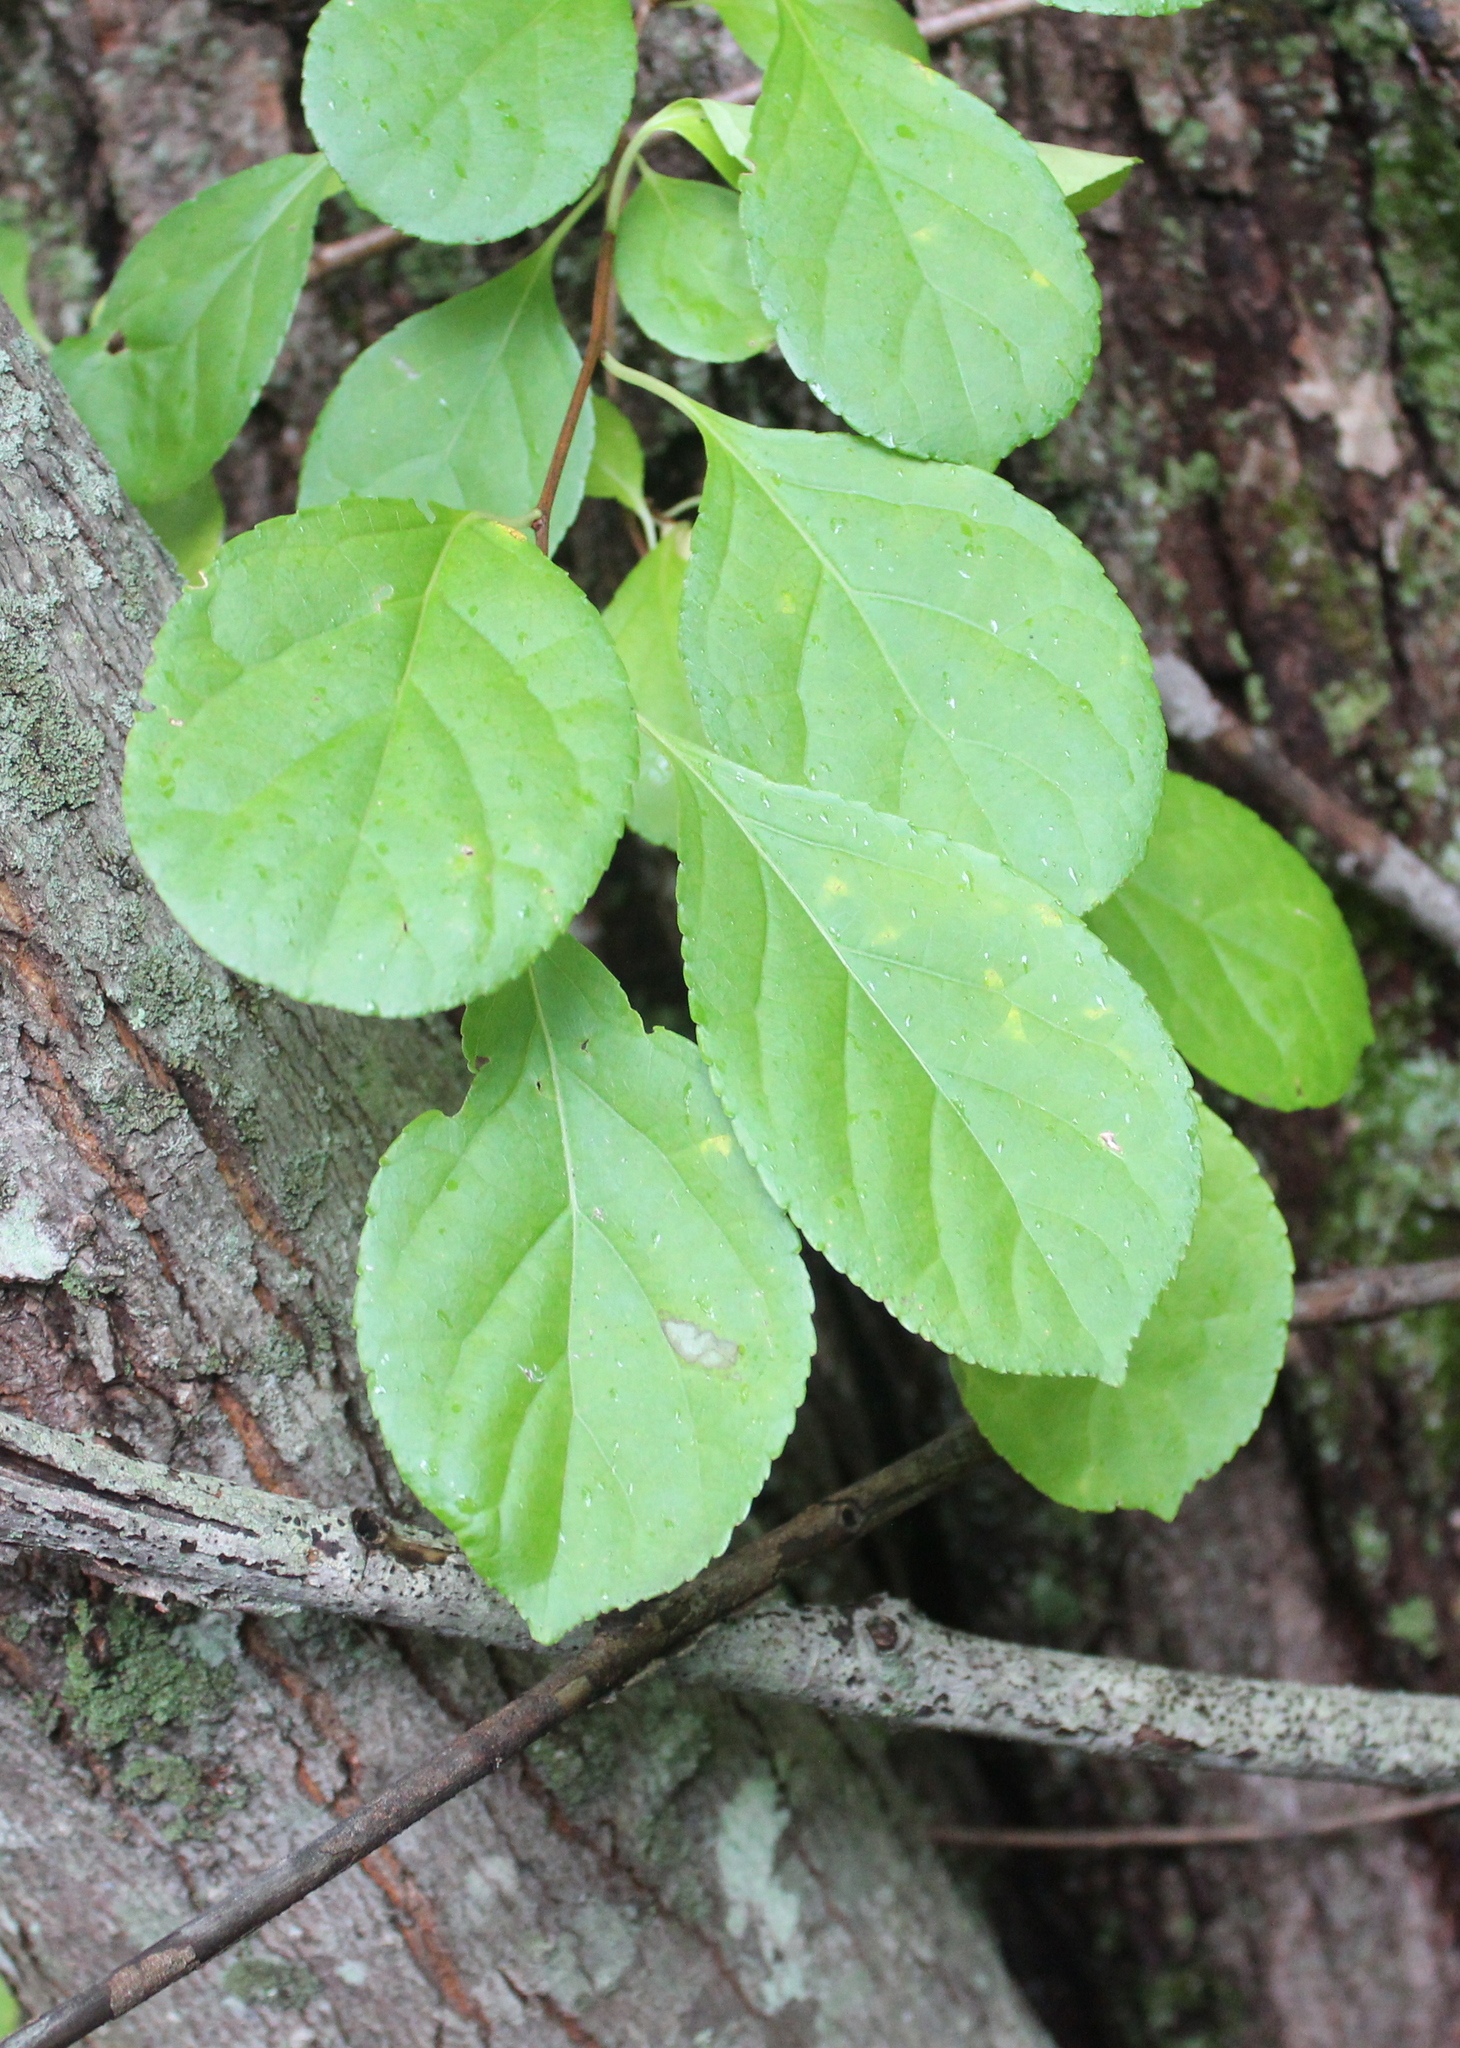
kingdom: Plantae
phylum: Tracheophyta
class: Magnoliopsida
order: Celastrales
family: Celastraceae
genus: Celastrus
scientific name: Celastrus orbiculatus
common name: Oriental bittersweet
